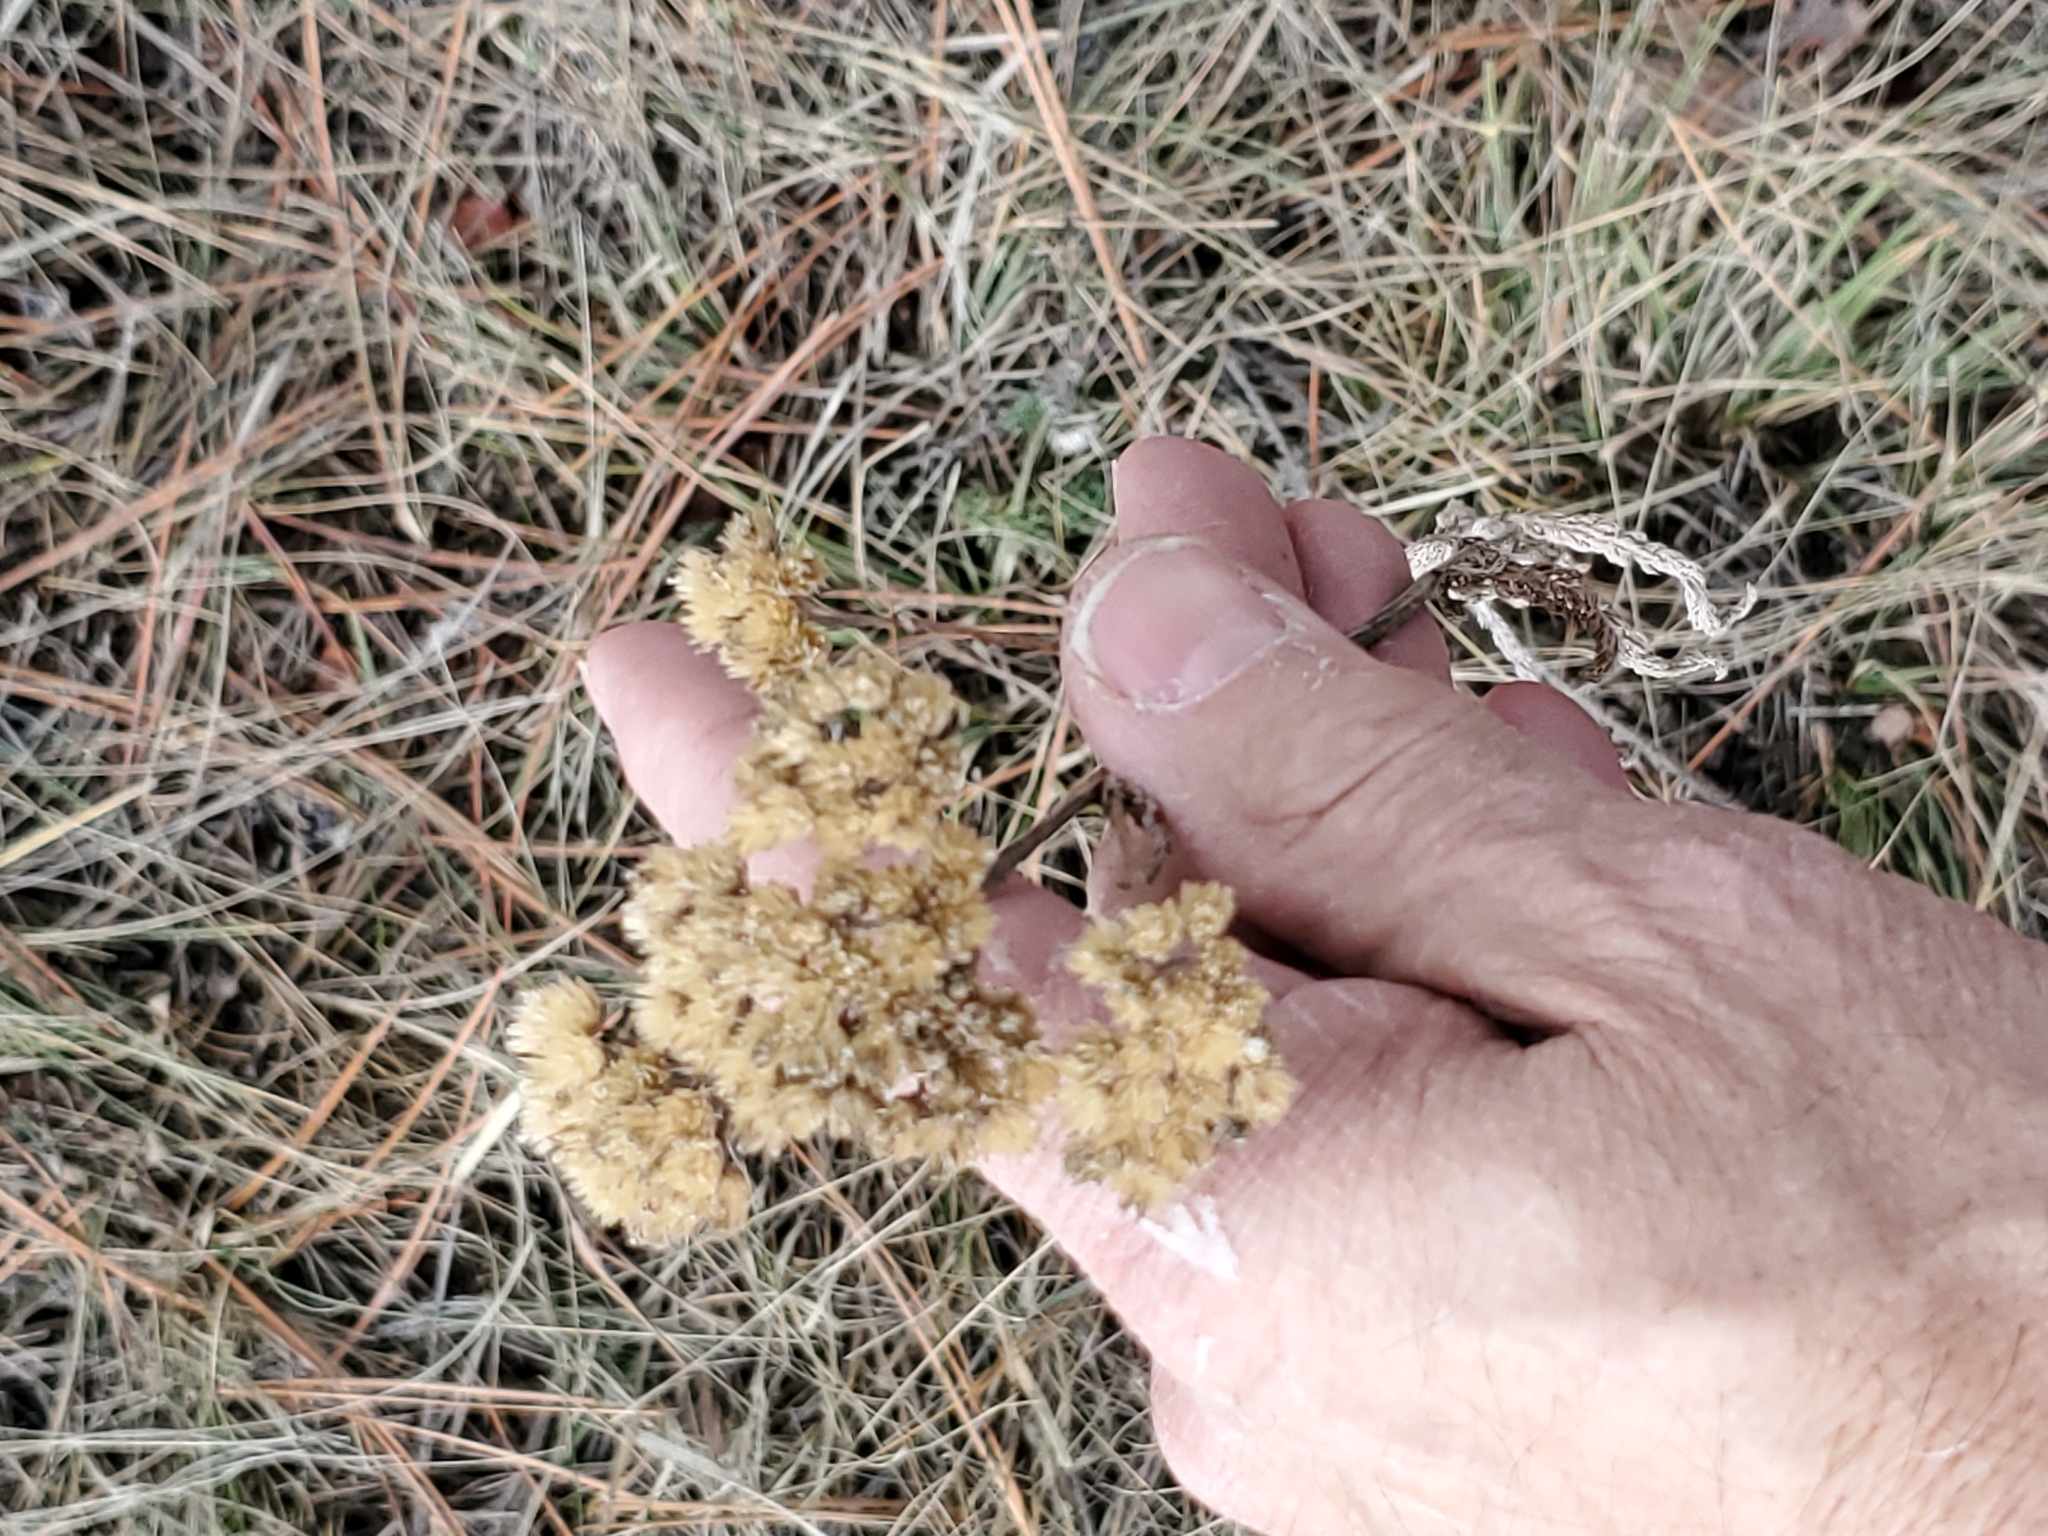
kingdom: Plantae
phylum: Tracheophyta
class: Magnoliopsida
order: Asterales
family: Asteraceae
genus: Achillea
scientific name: Achillea millefolium
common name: Yarrow
